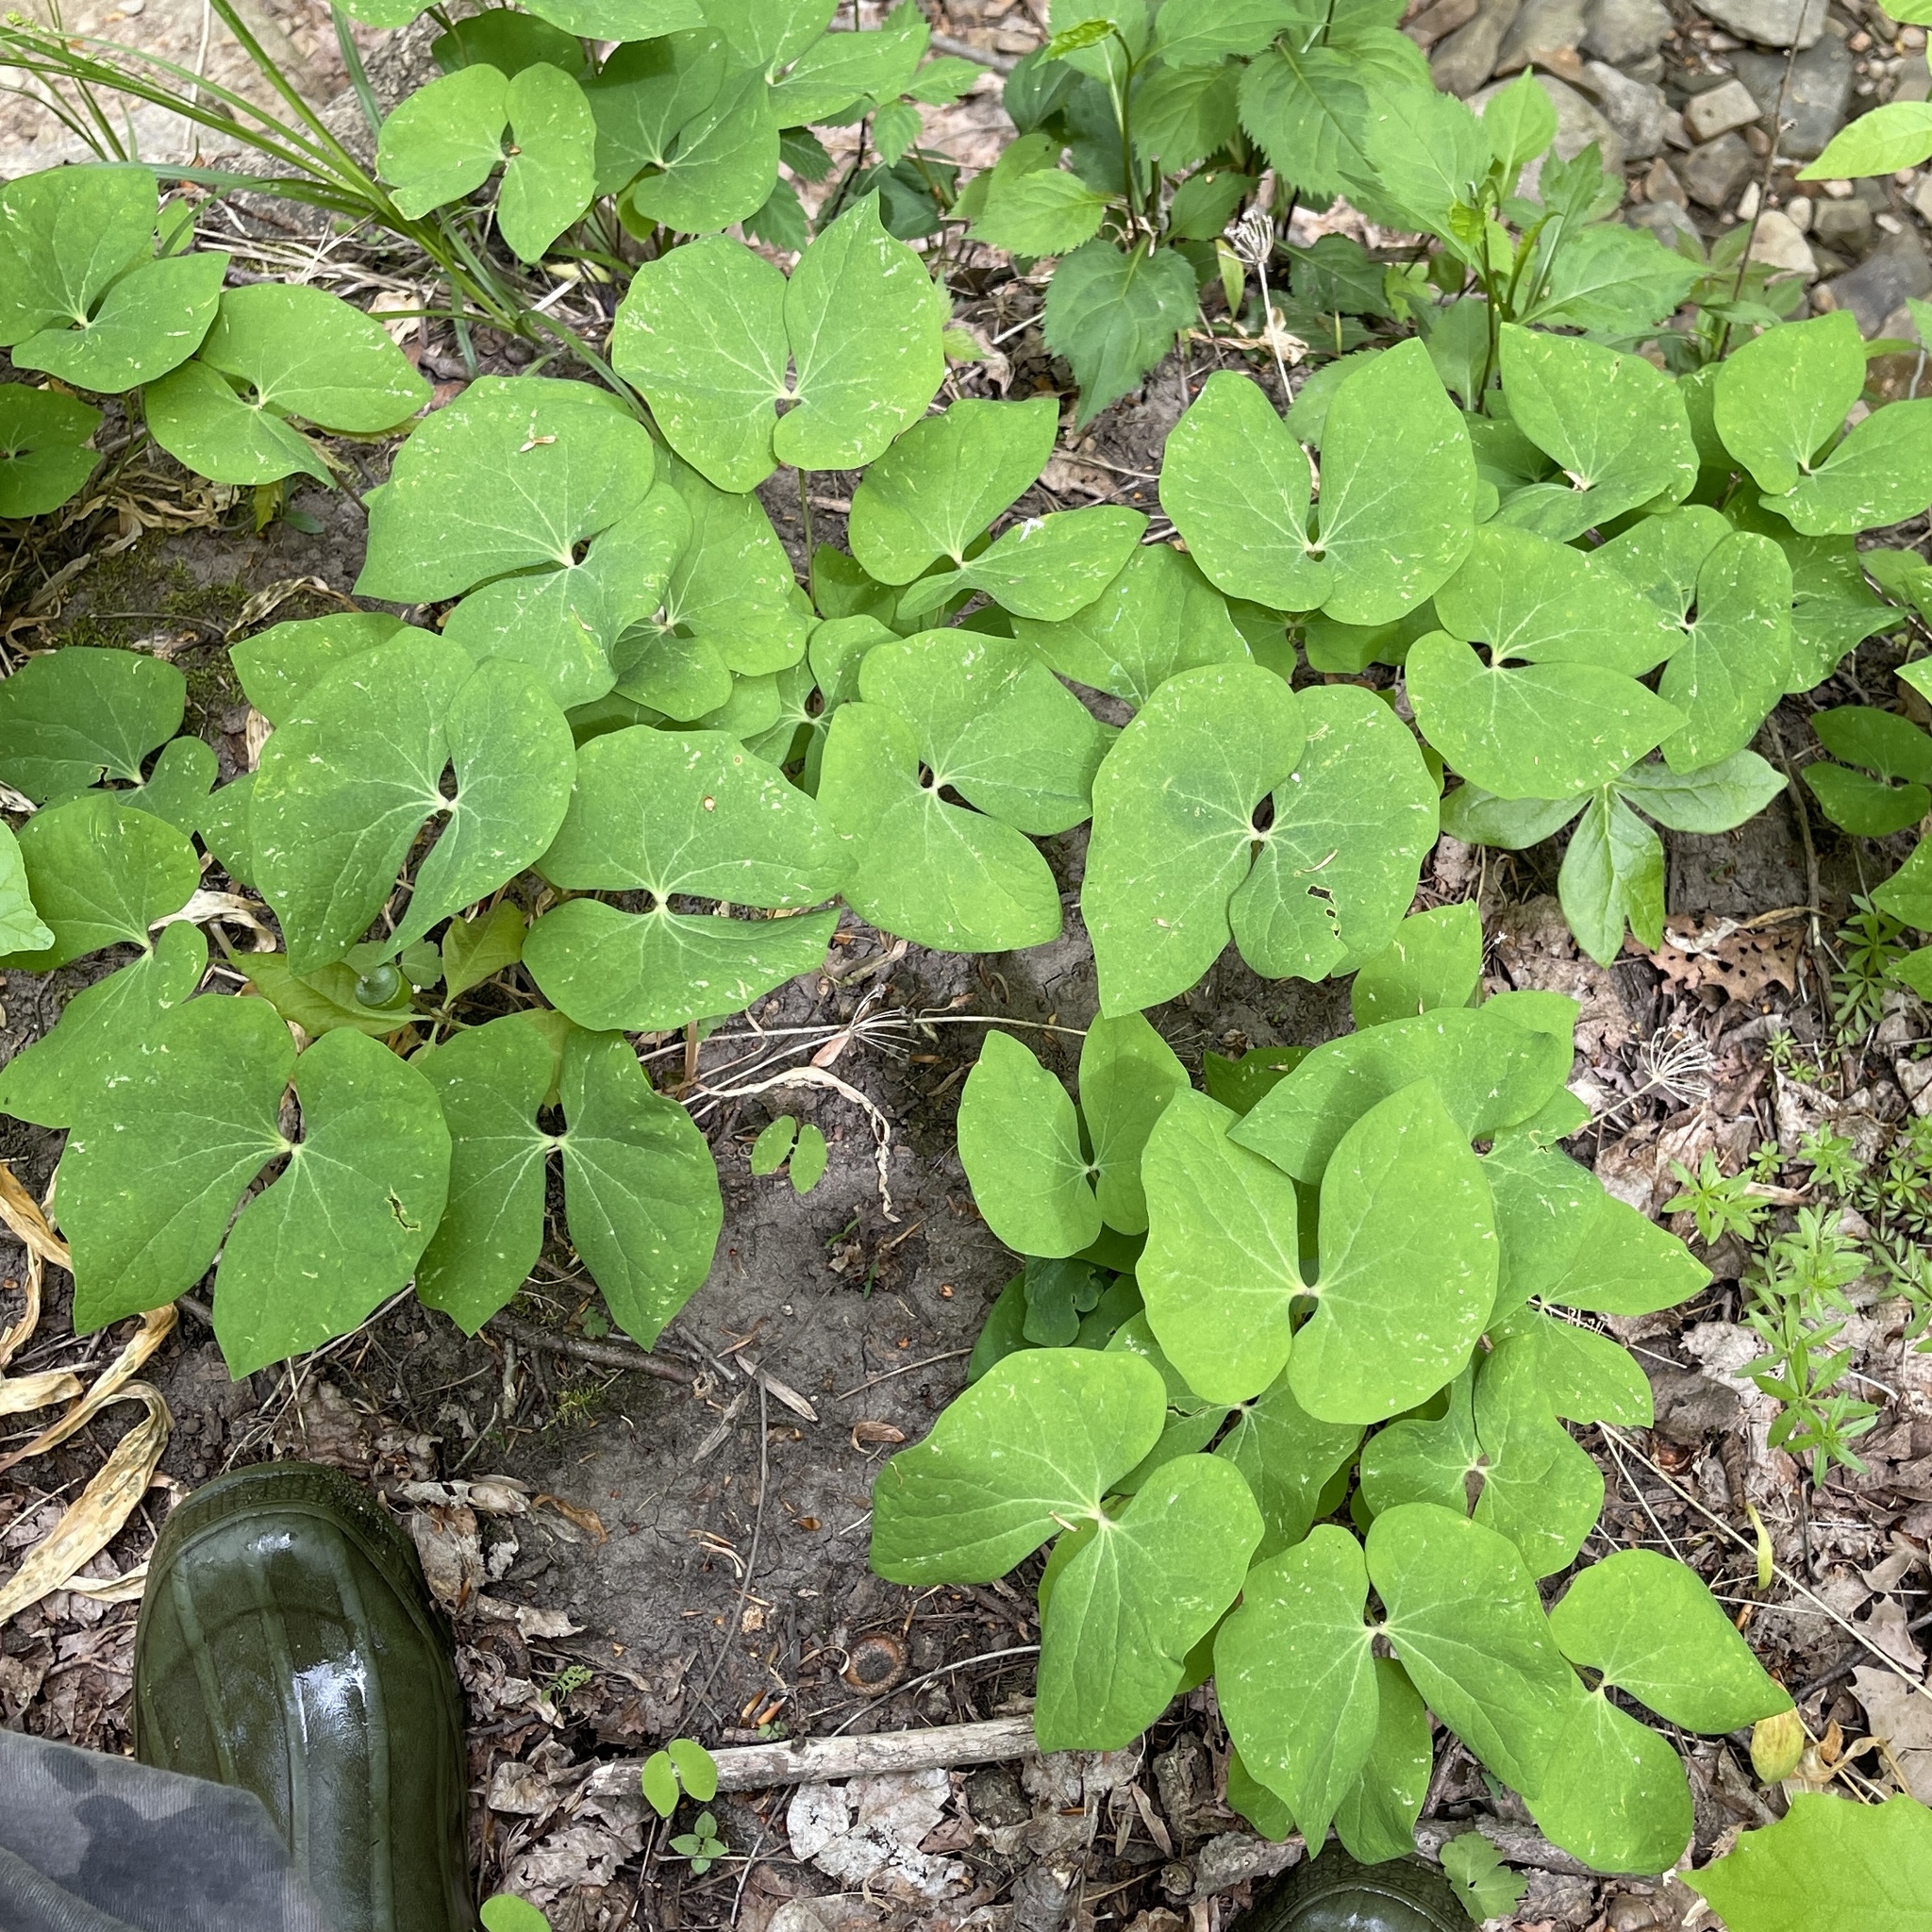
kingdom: Plantae
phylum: Tracheophyta
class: Magnoliopsida
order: Ranunculales
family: Berberidaceae
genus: Jeffersonia
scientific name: Jeffersonia diphylla
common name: Rheumatism-root
